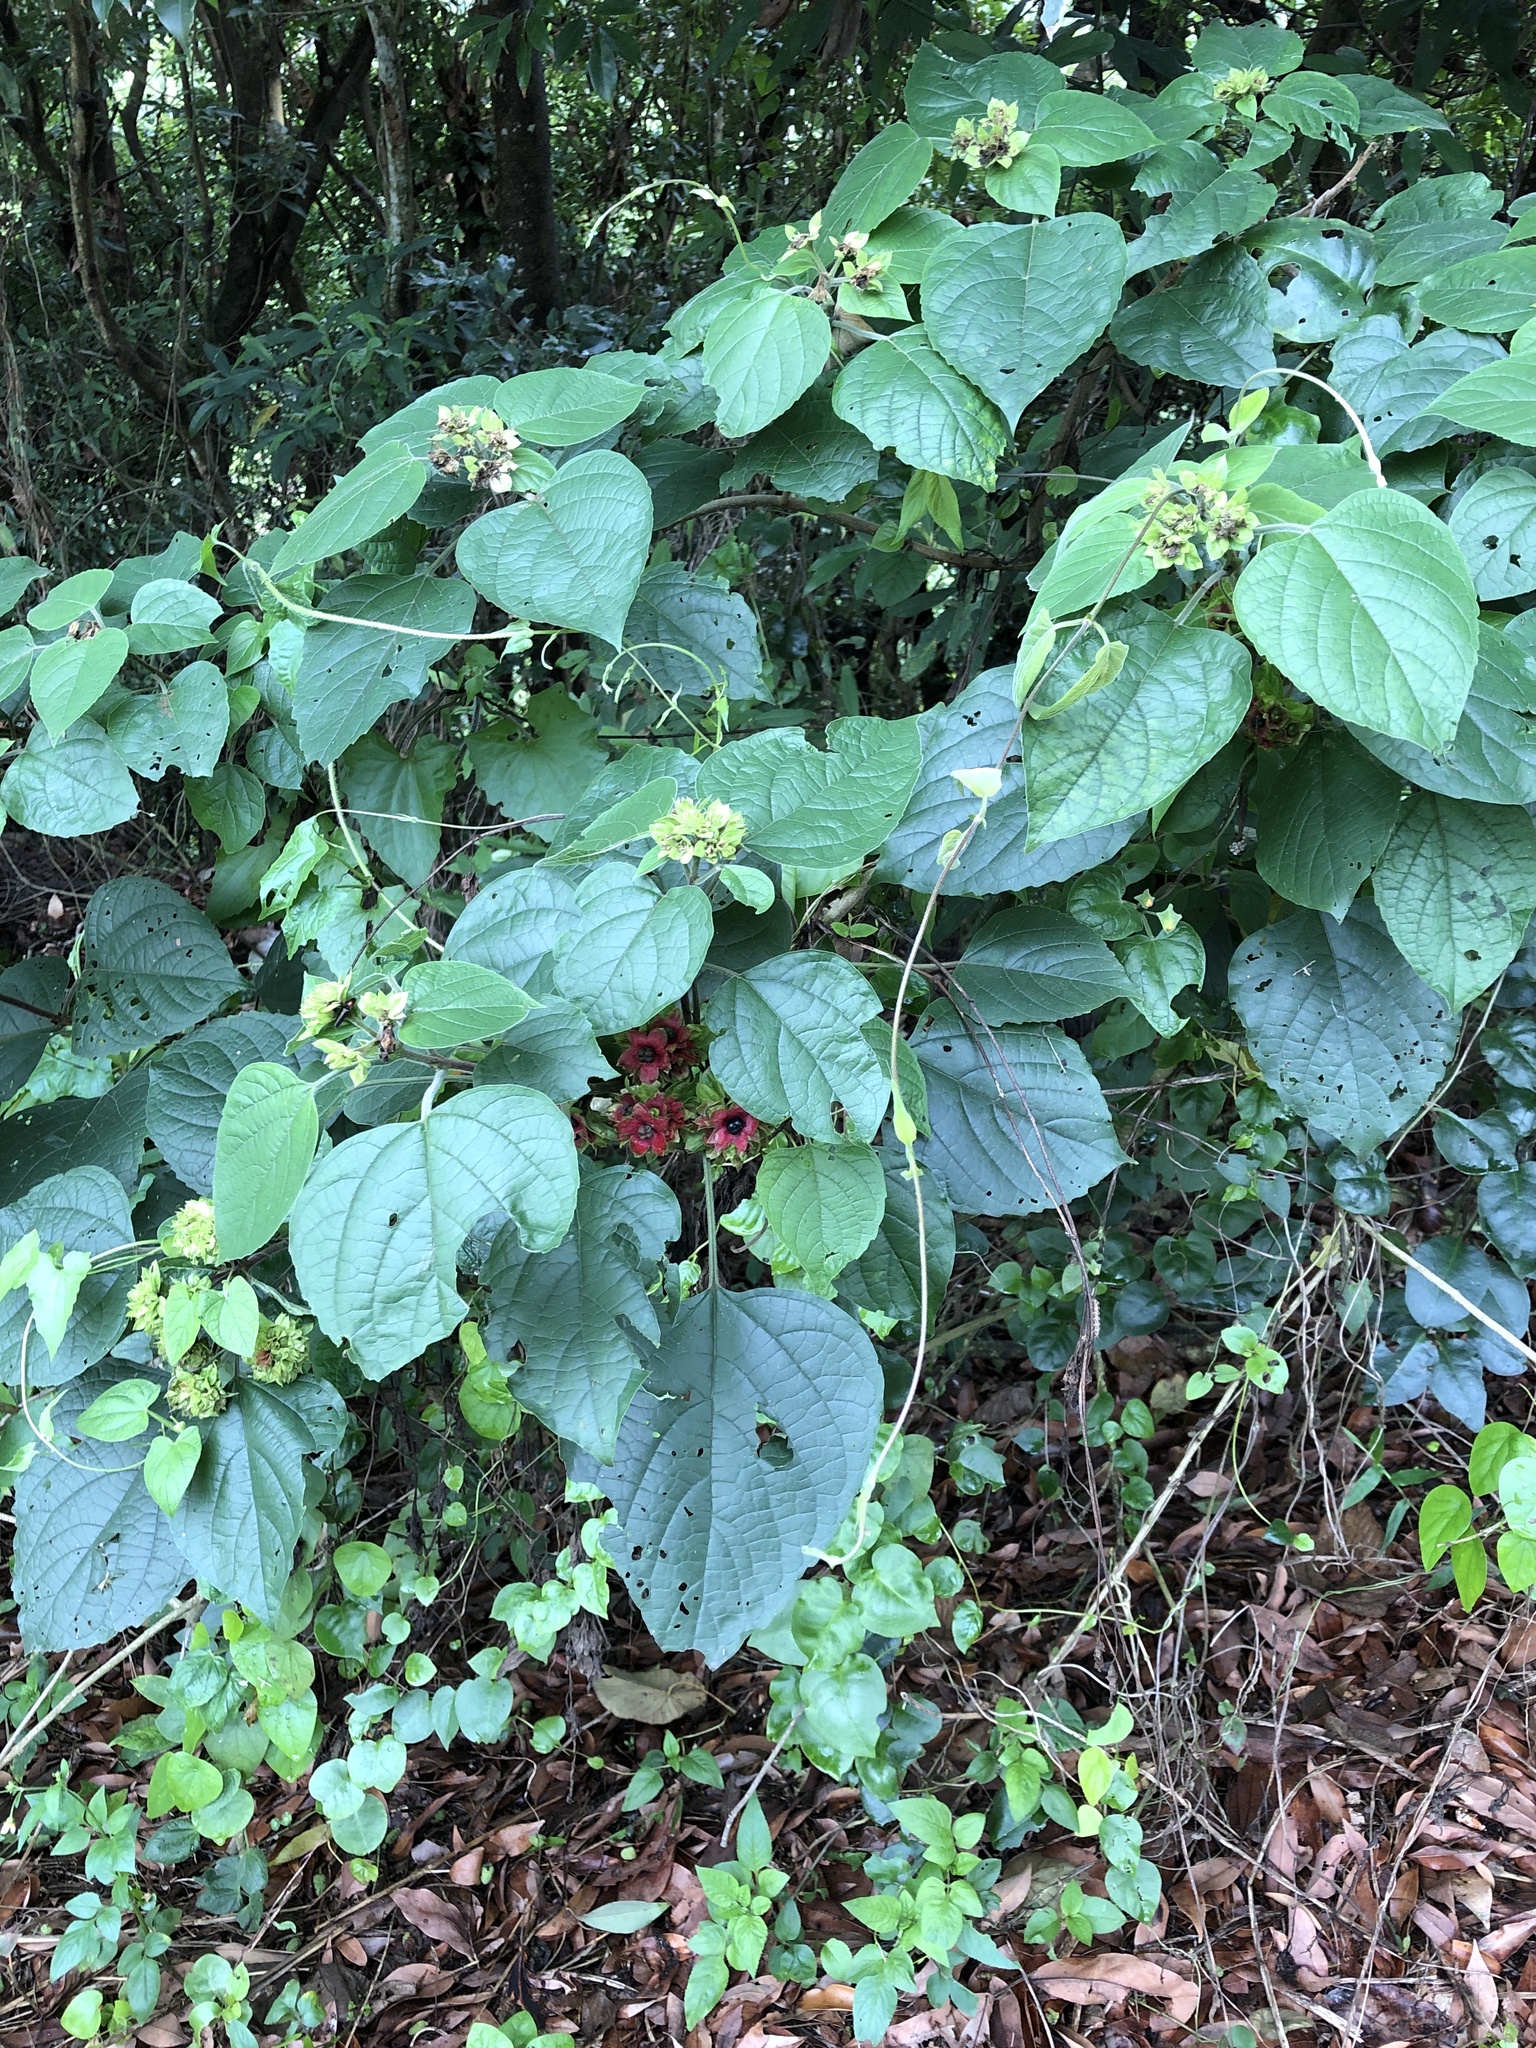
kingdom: Plantae
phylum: Tracheophyta
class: Magnoliopsida
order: Lamiales
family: Lamiaceae
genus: Clerodendrum
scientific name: Clerodendrum canescens
